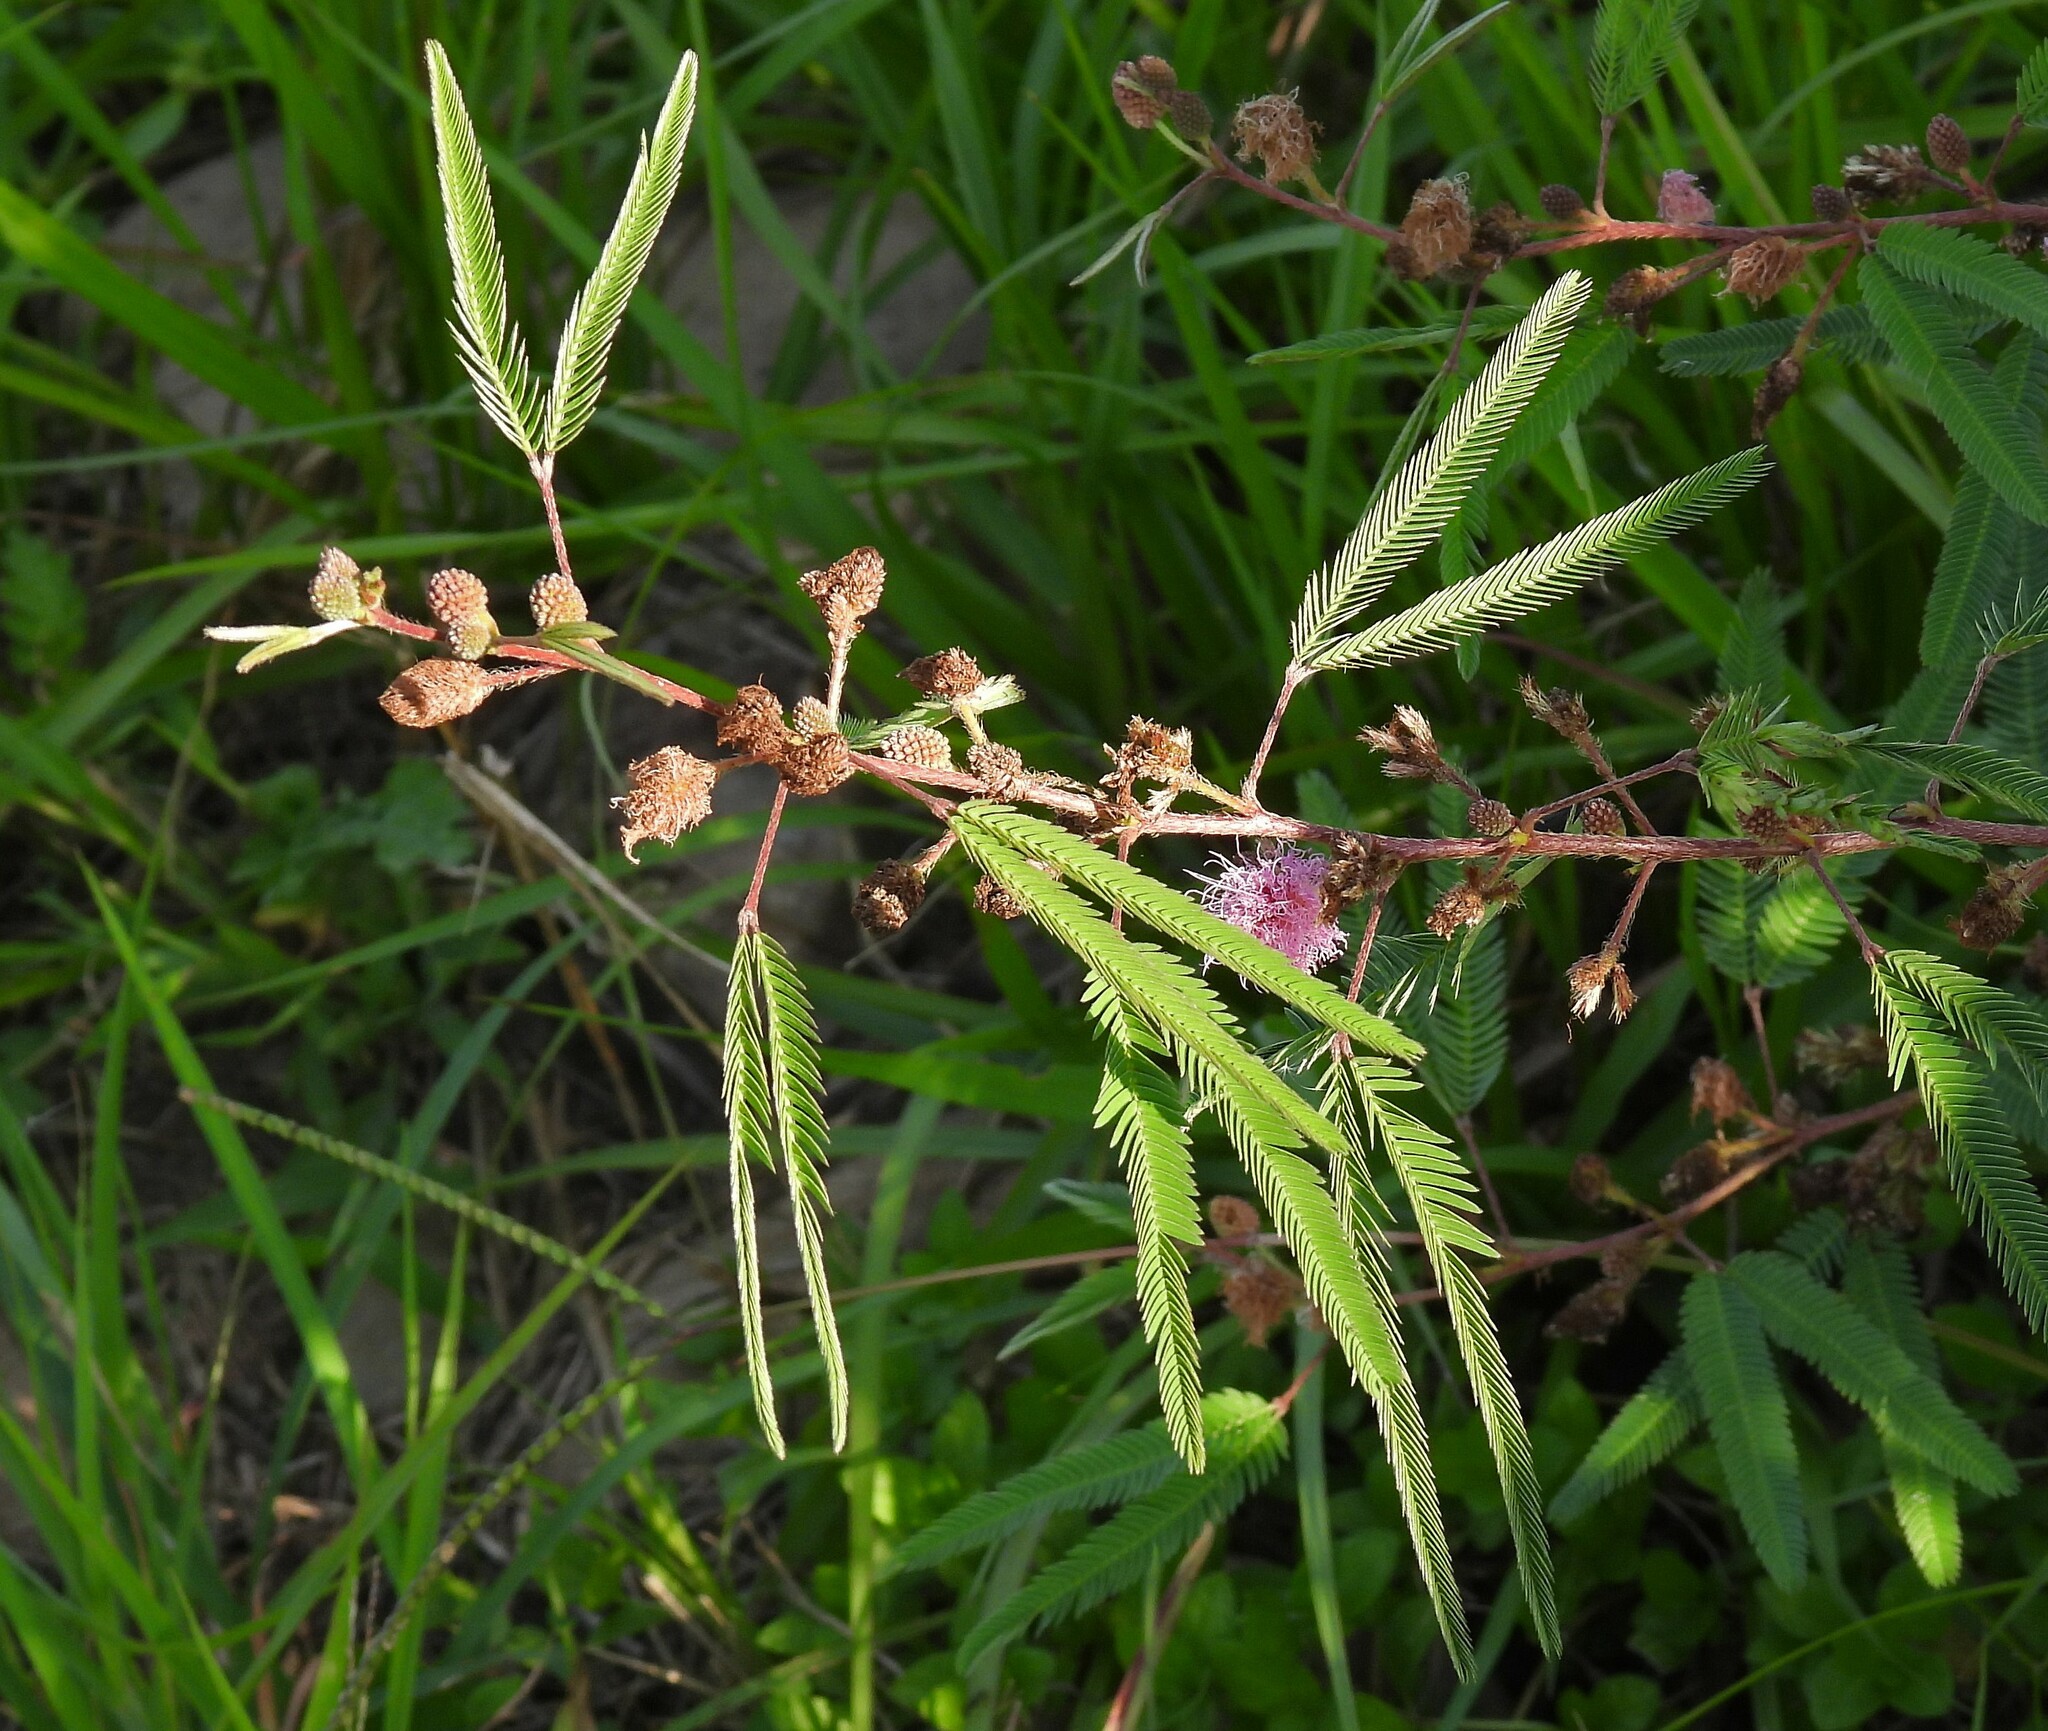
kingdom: Plantae
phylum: Tracheophyta
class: Magnoliopsida
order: Fabales
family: Fabaceae
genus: Mimosa
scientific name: Mimosa xanthocentra
